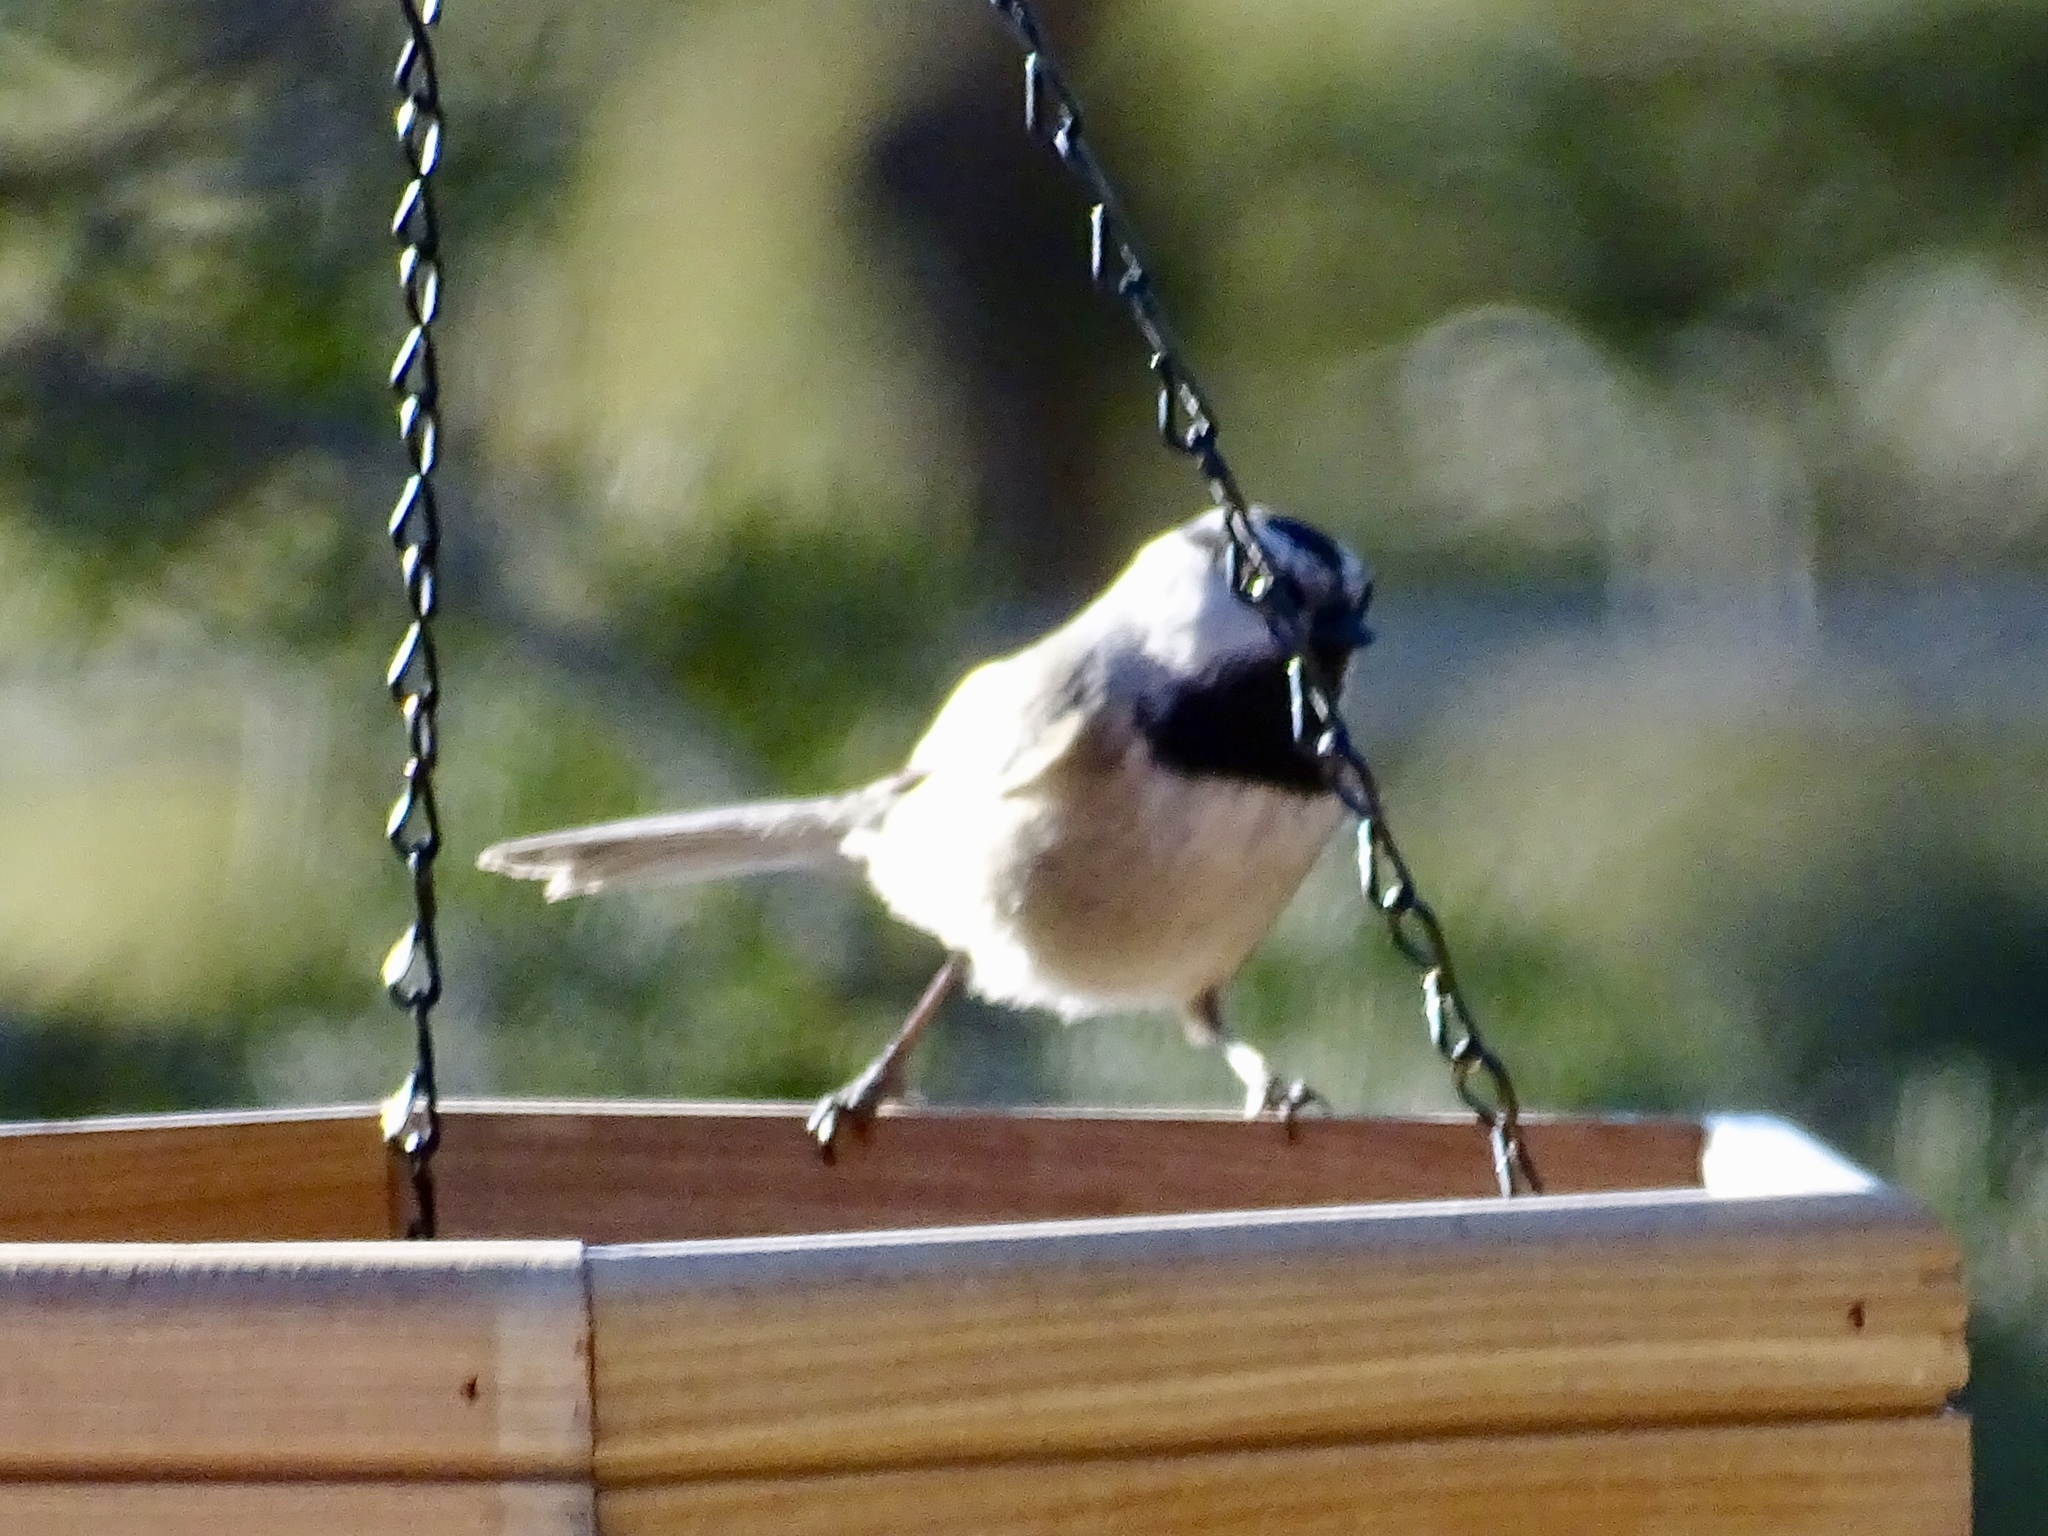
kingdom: Animalia
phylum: Chordata
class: Aves
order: Passeriformes
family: Paridae
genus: Poecile
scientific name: Poecile gambeli
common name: Mountain chickadee
